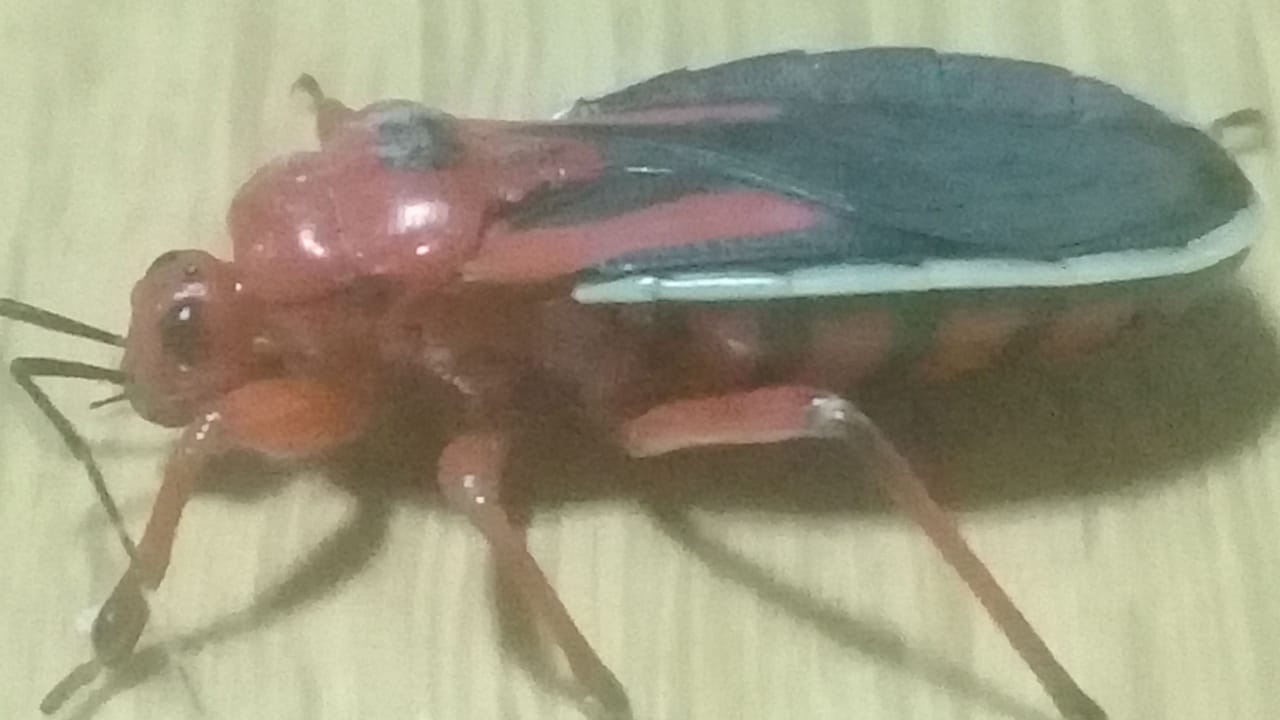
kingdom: Animalia
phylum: Arthropoda
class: Insecta
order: Hemiptera
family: Reduviidae
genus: Brontostoma
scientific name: Brontostoma discus
